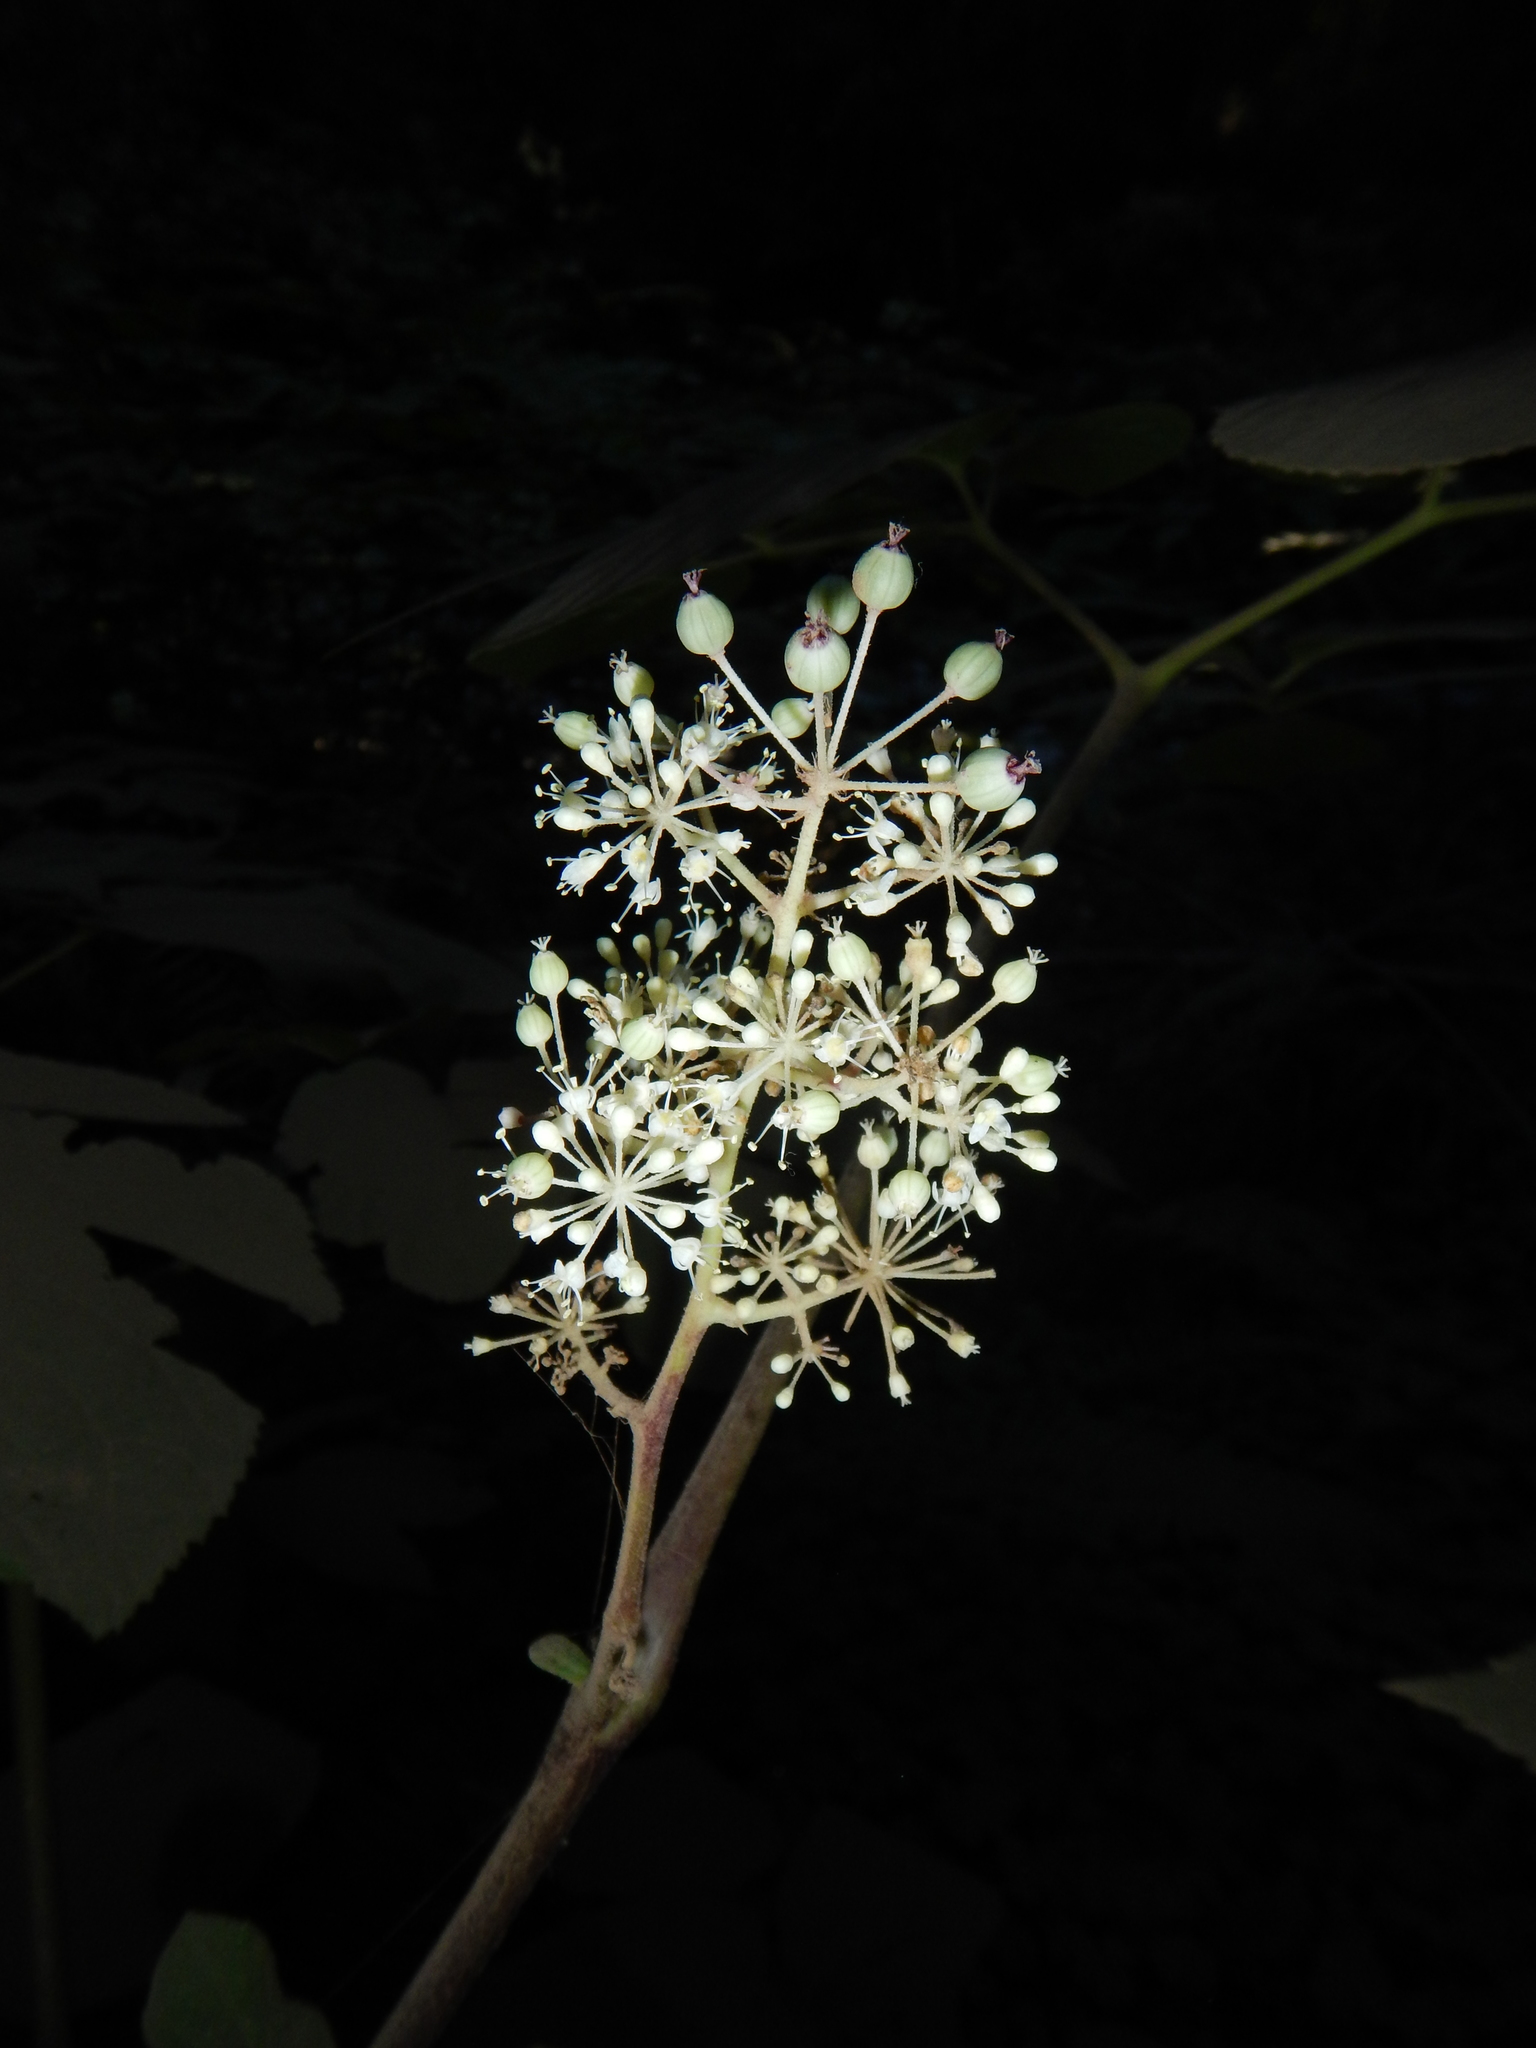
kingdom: Plantae
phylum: Tracheophyta
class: Magnoliopsida
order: Apiales
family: Araliaceae
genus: Aralia
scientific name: Aralia californica
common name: California-ginseng
